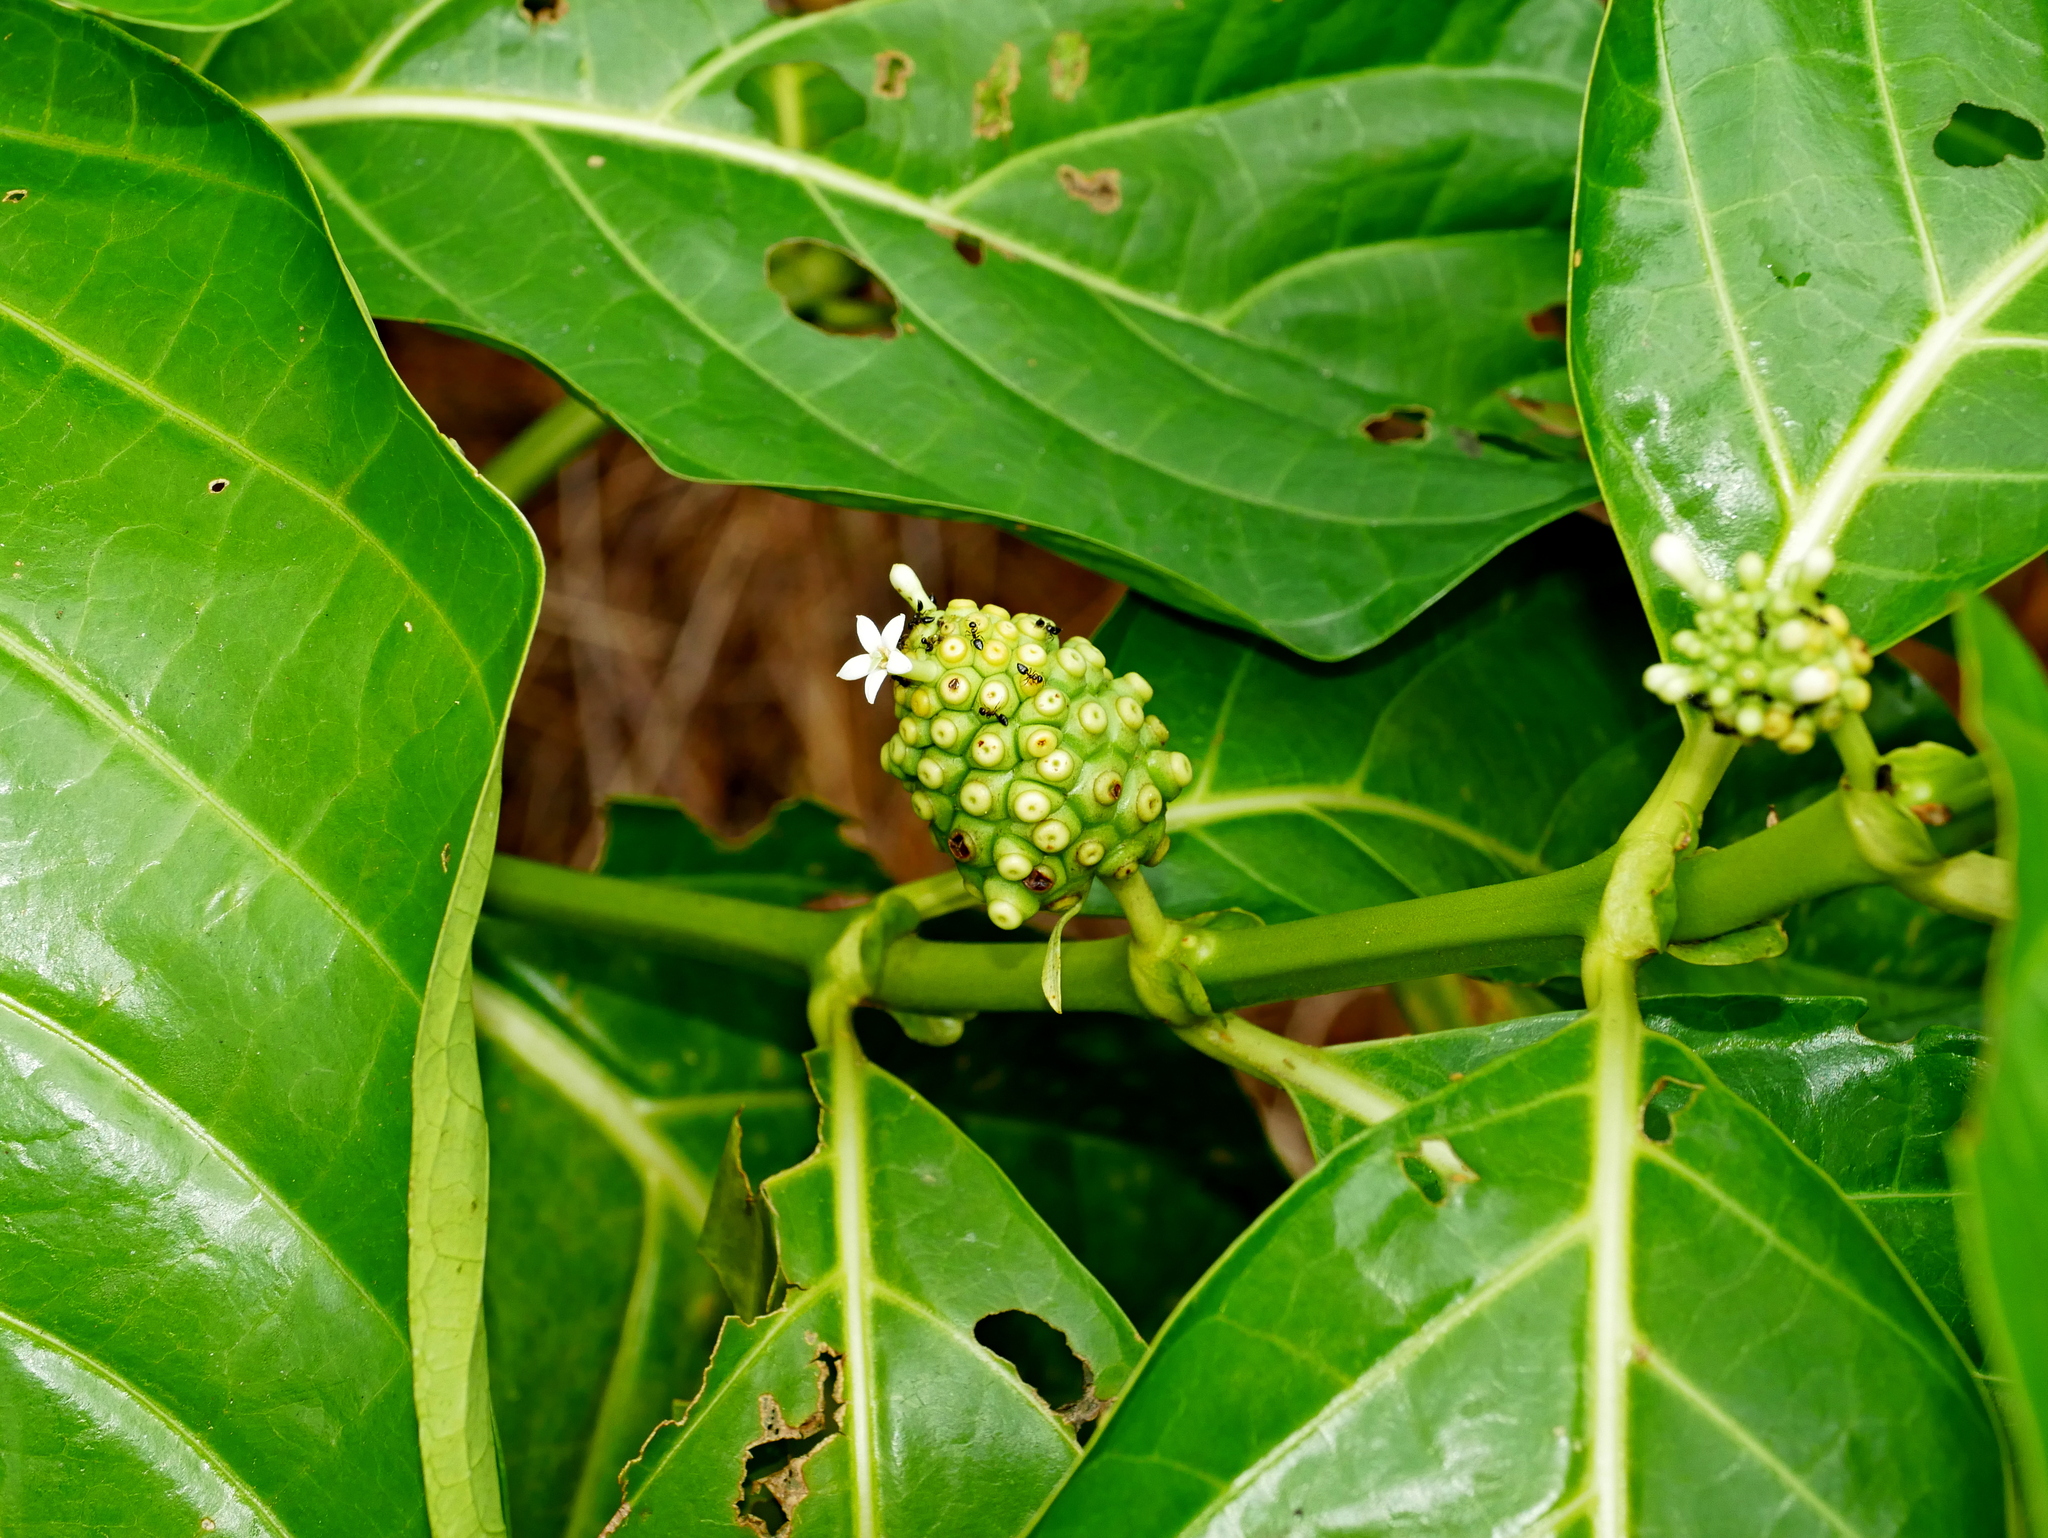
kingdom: Plantae
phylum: Tracheophyta
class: Magnoliopsida
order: Gentianales
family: Rubiaceae
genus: Morinda
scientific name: Morinda citrifolia
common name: Indian-mulberry
